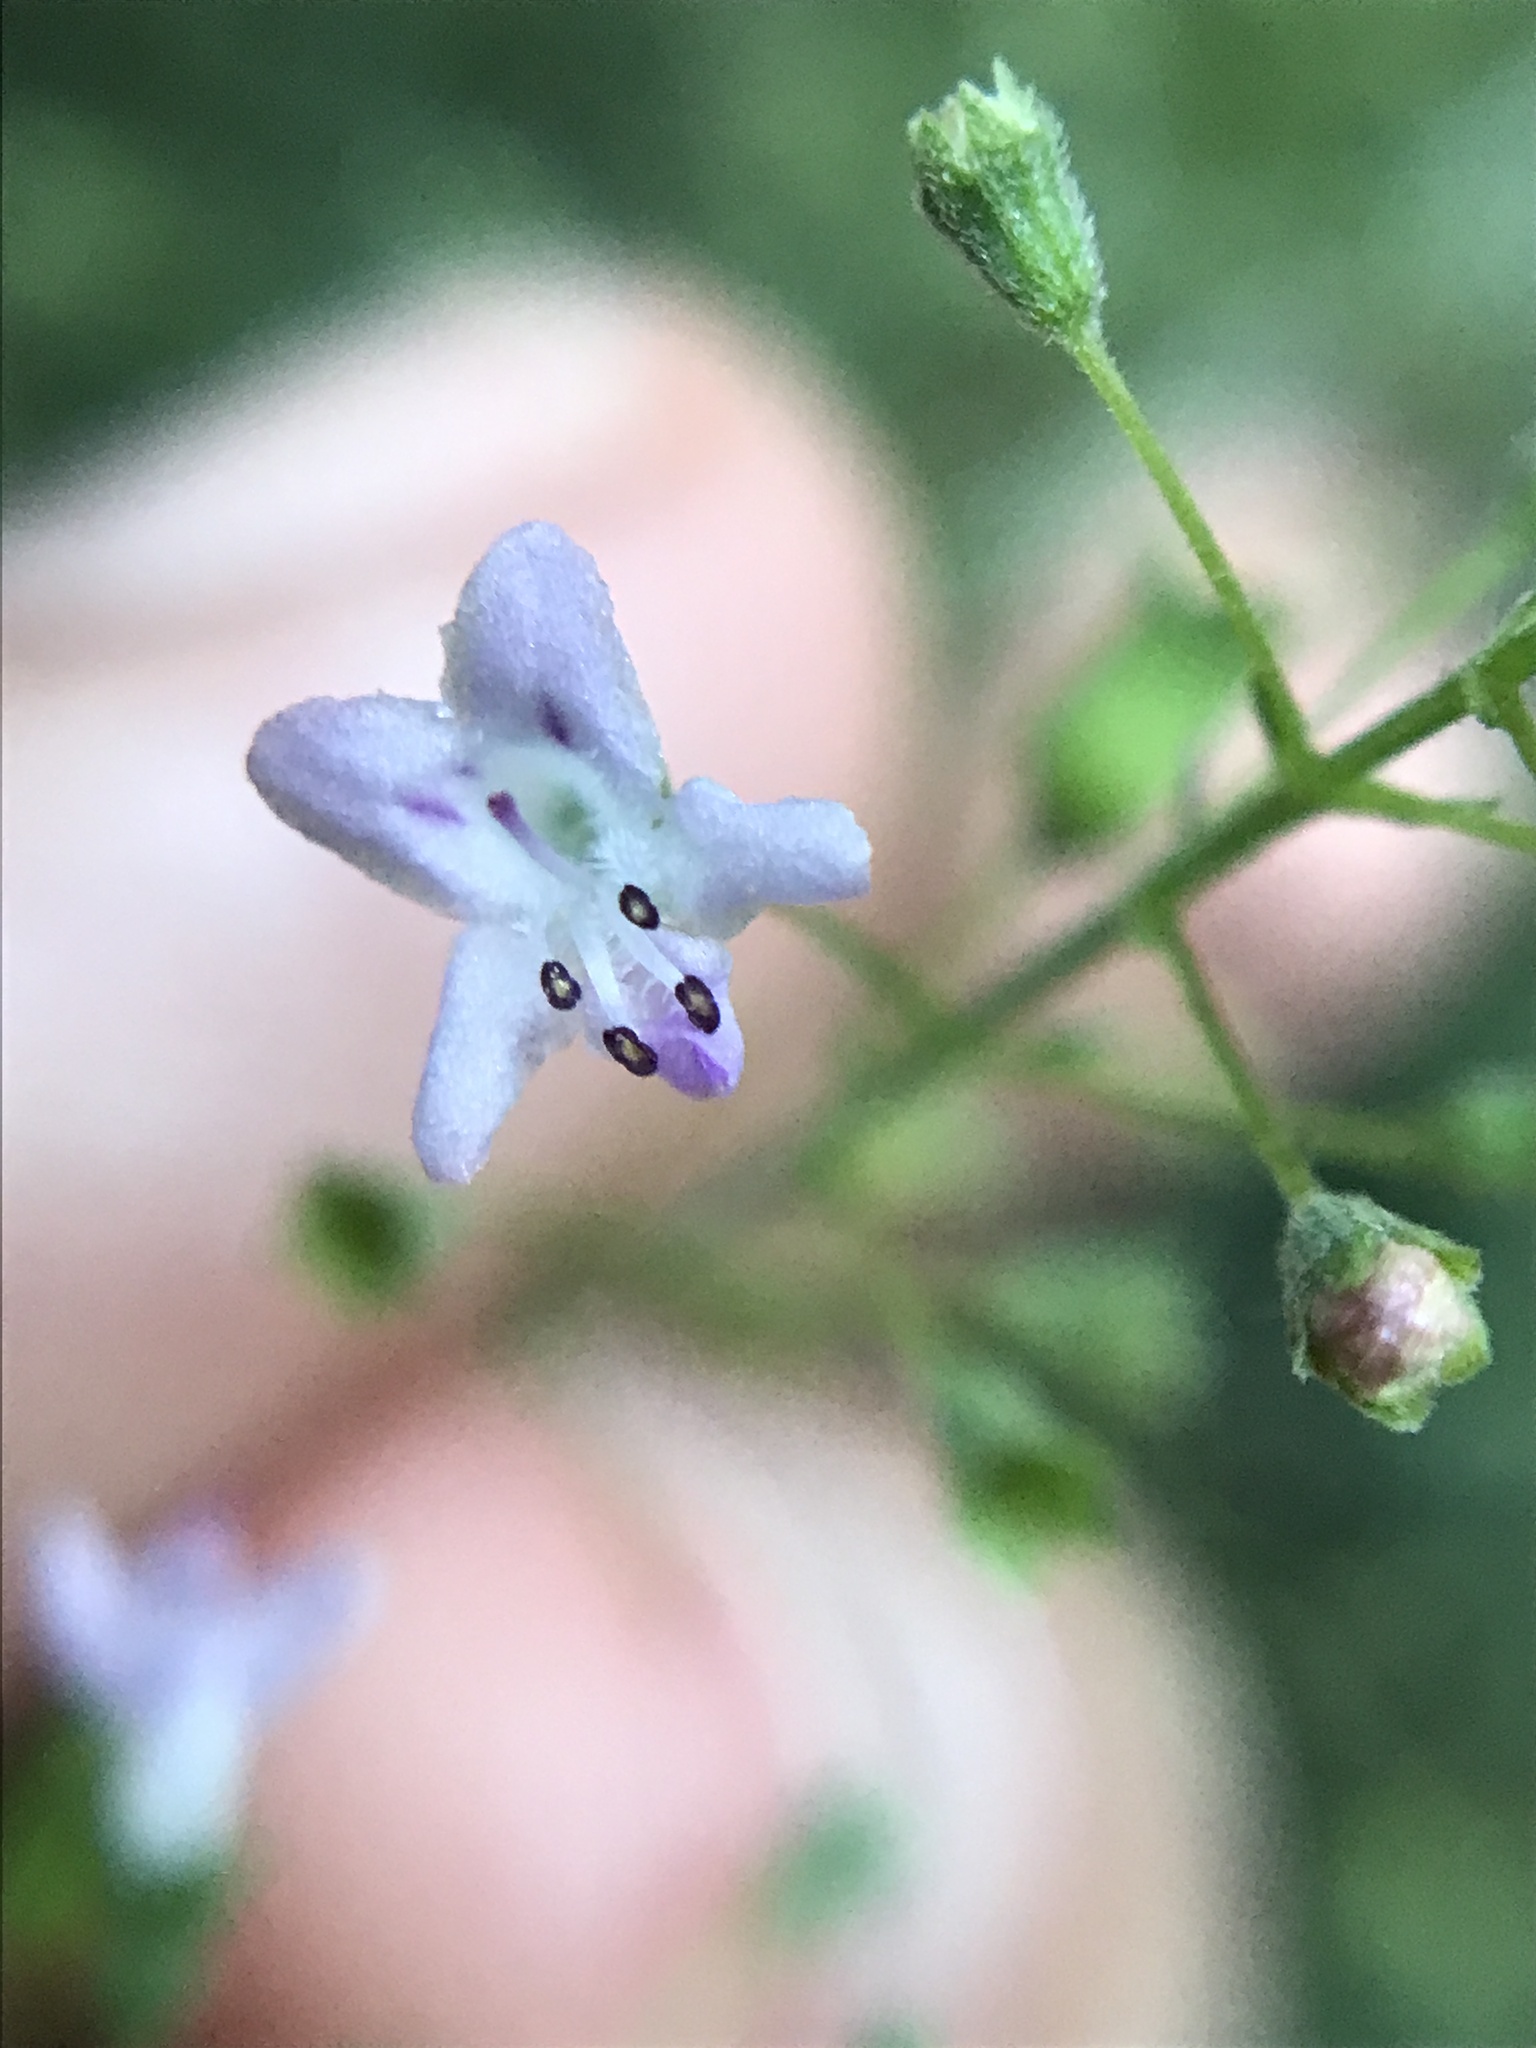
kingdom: Plantae
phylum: Tracheophyta
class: Magnoliopsida
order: Lamiales
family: Lamiaceae
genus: Condea
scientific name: Condea floribunda
